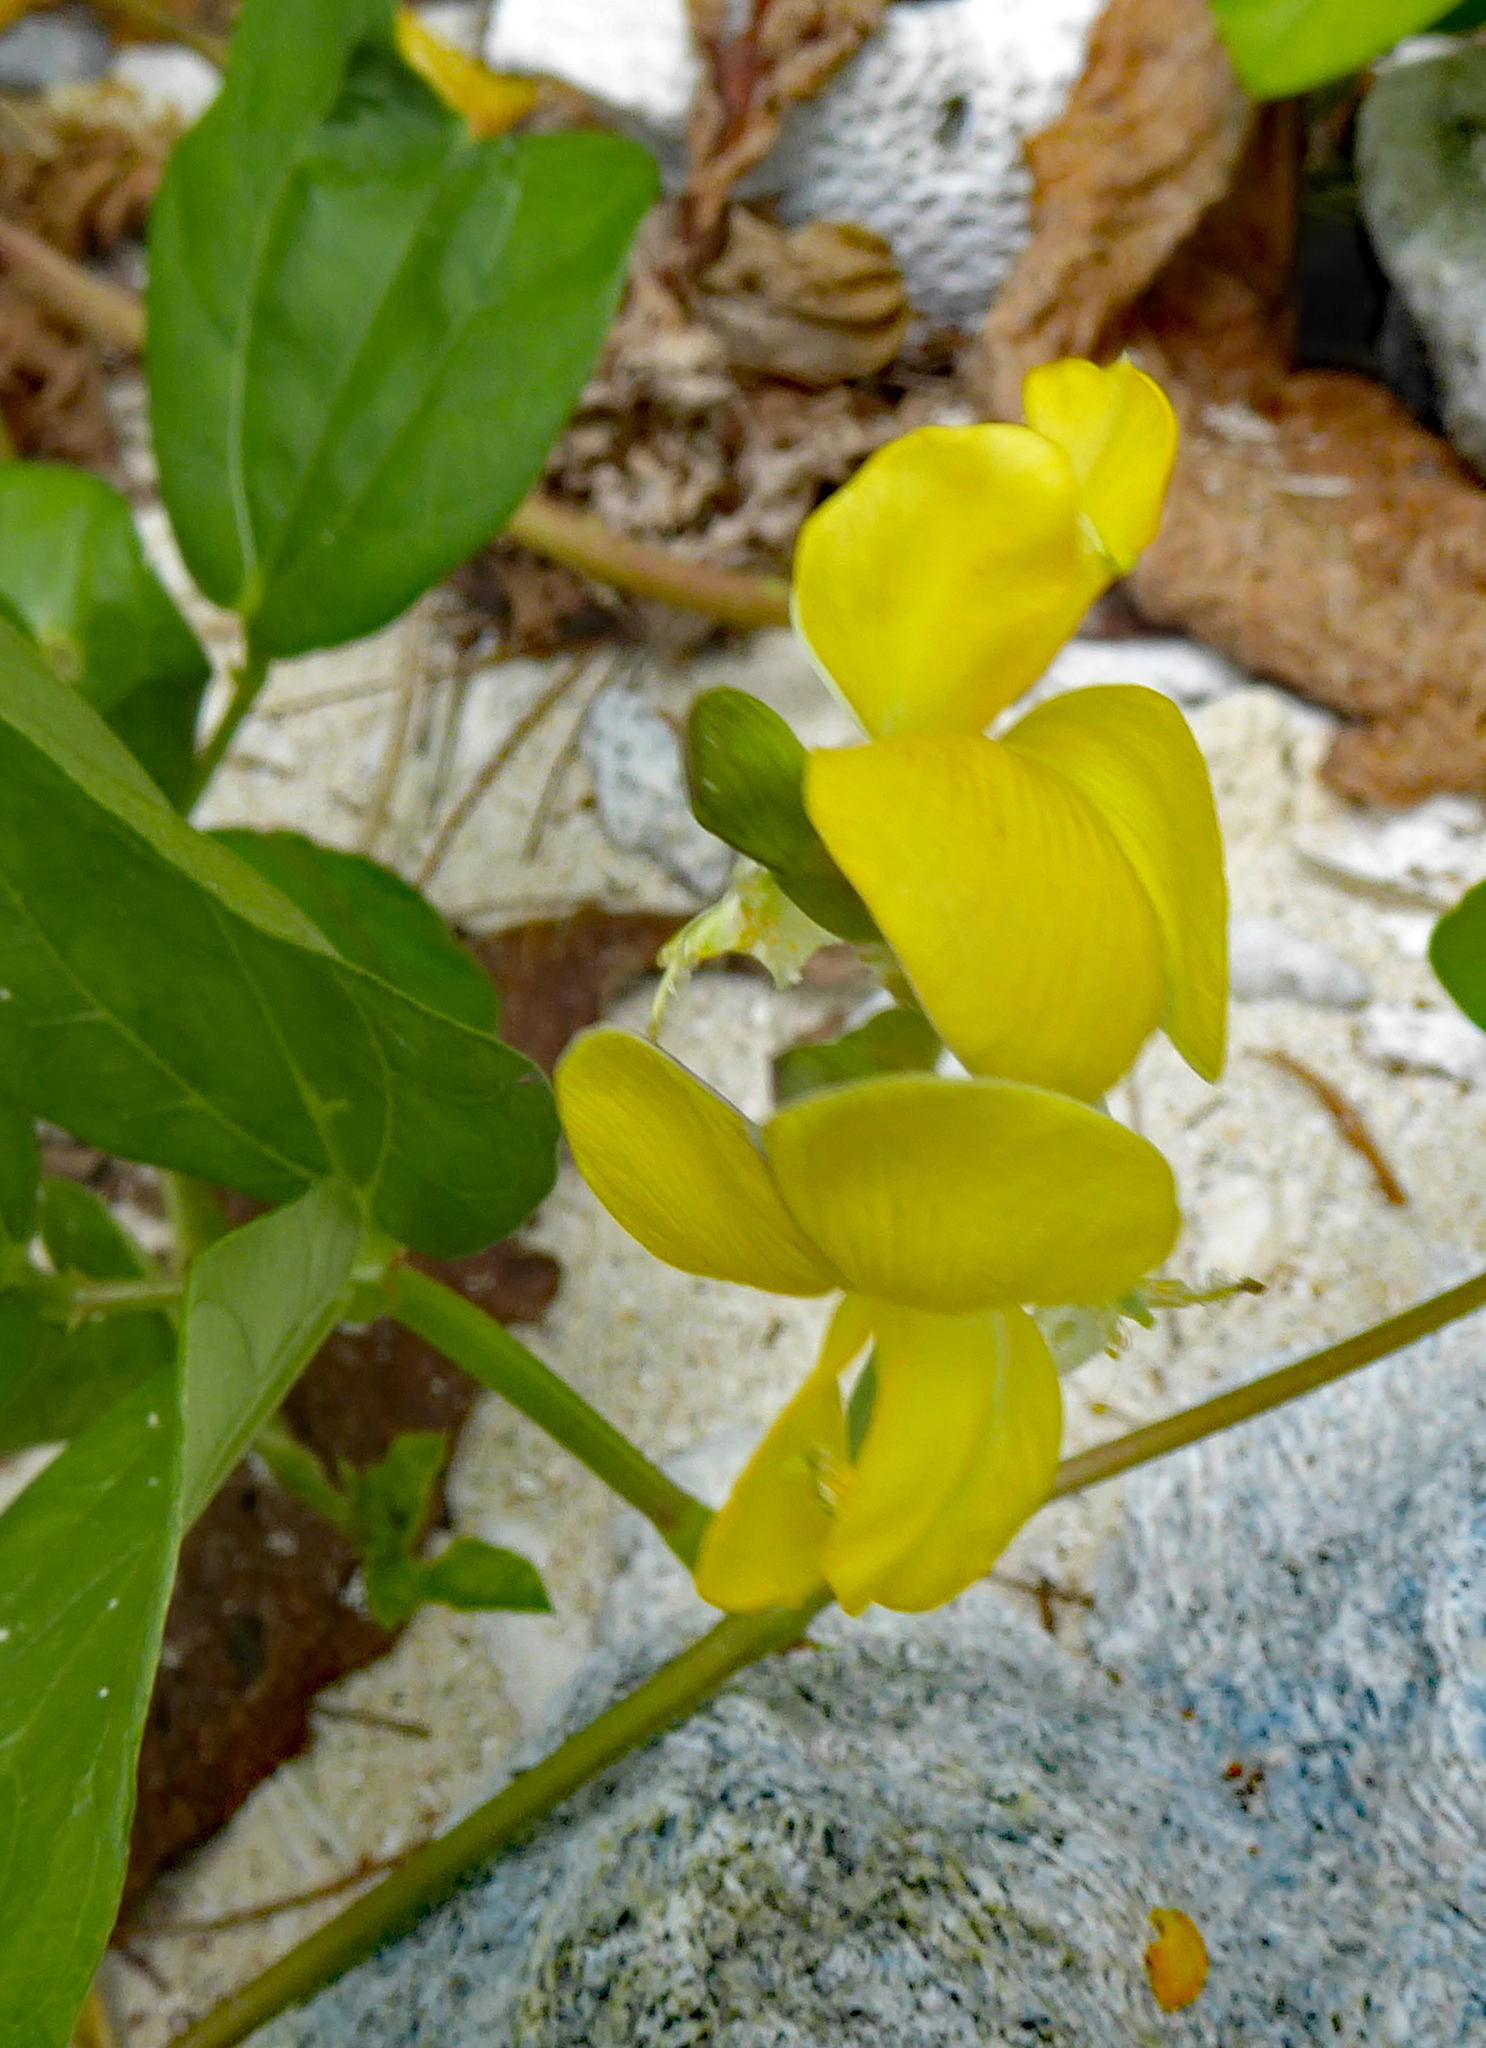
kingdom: Plantae
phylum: Tracheophyta
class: Magnoliopsida
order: Fabales
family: Fabaceae
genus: Vigna
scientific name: Vigna marina
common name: Dune-bean
